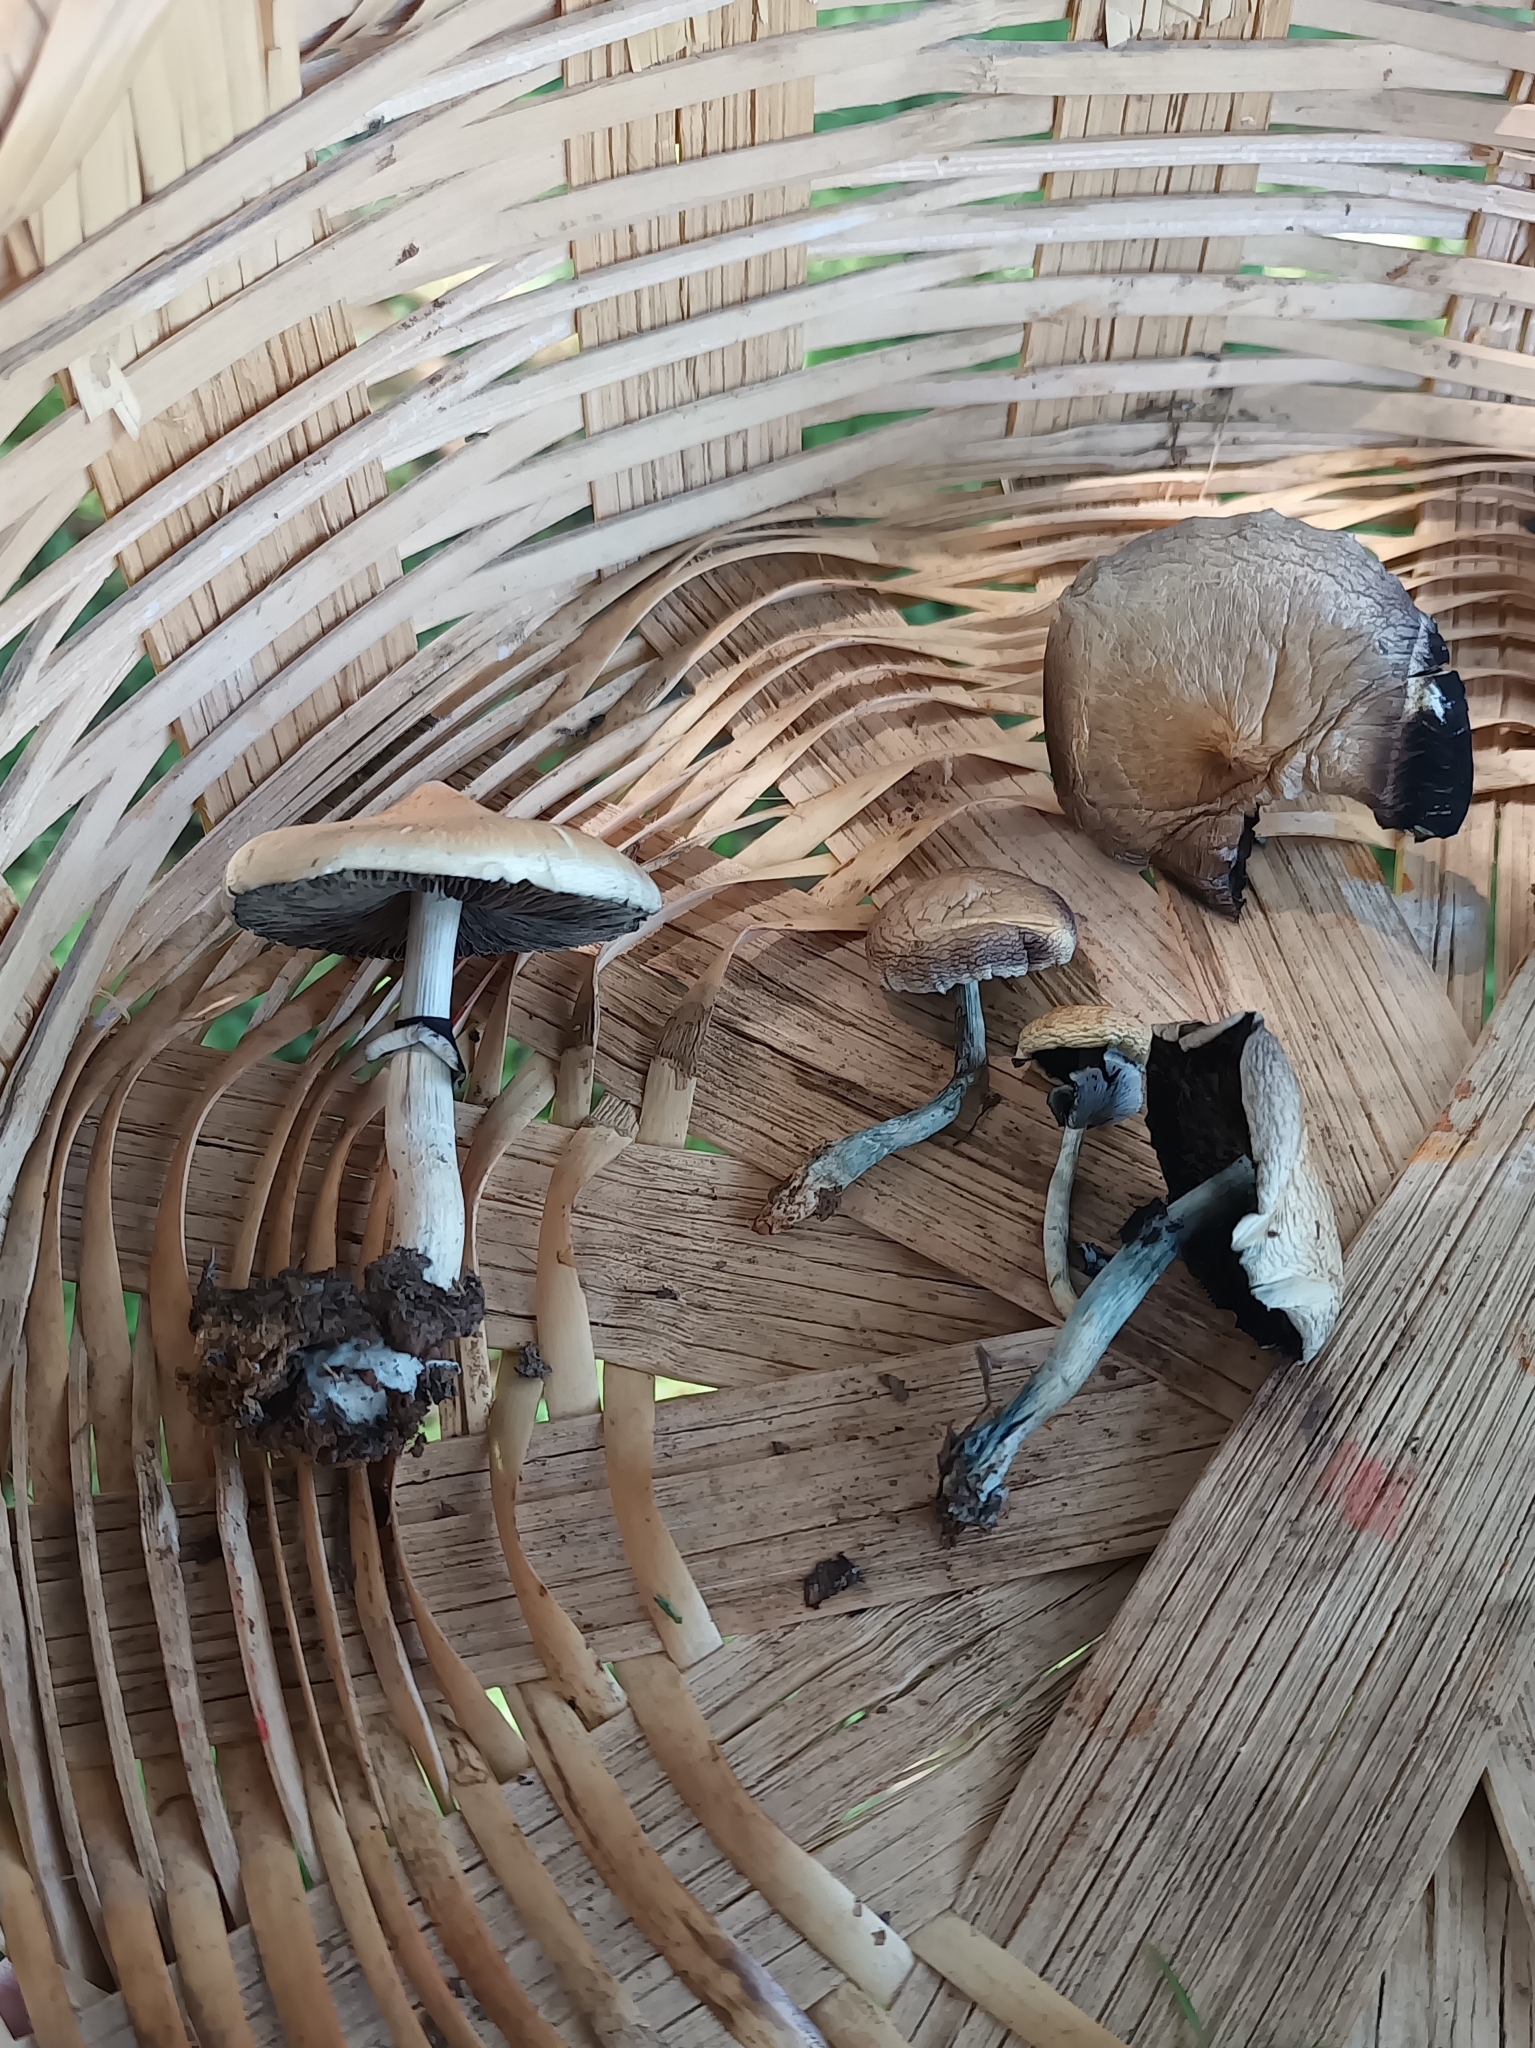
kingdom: Fungi
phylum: Basidiomycota
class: Agaricomycetes
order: Agaricales
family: Hymenogastraceae
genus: Psilocybe
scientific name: Psilocybe cubensis
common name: Golden brownie
